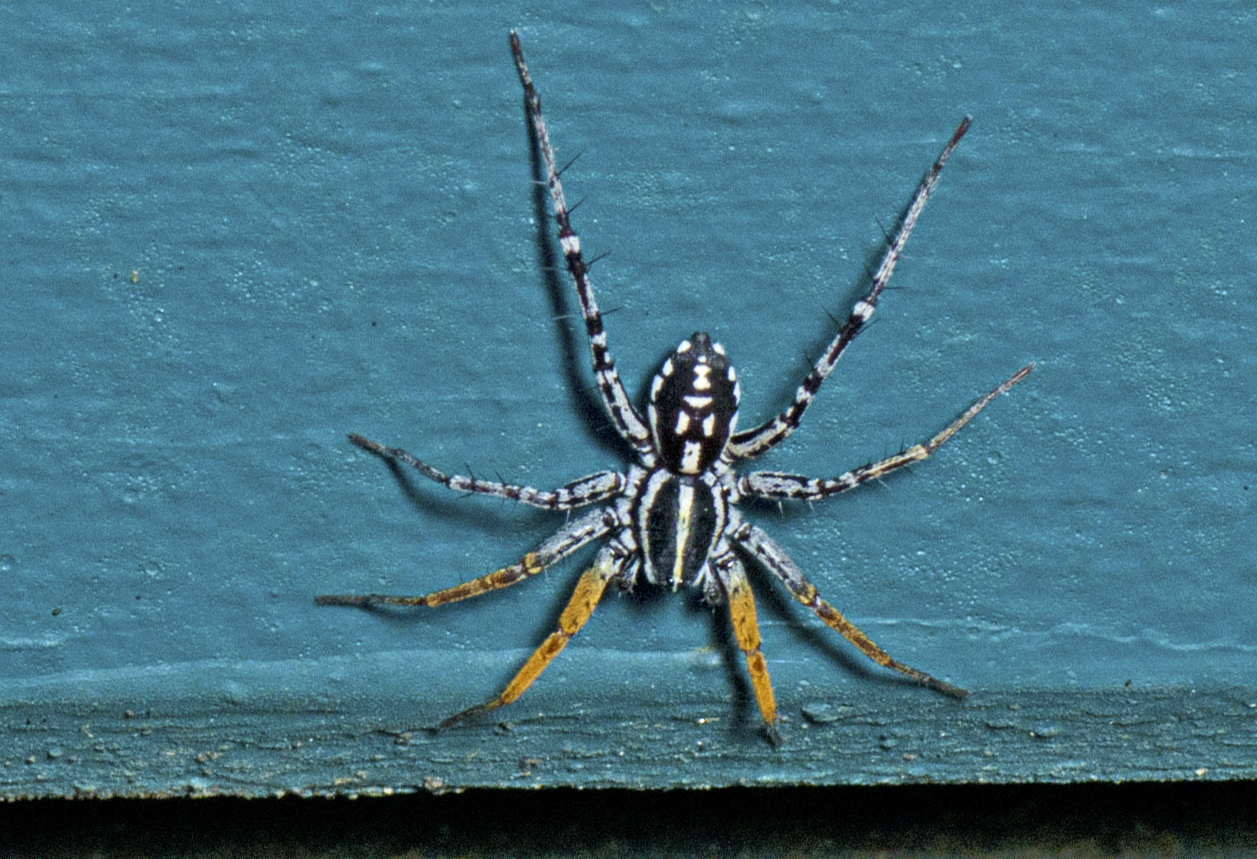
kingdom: Animalia
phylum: Arthropoda
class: Arachnida
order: Araneae
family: Corinnidae
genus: Nyssus
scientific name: Nyssus coloripes
